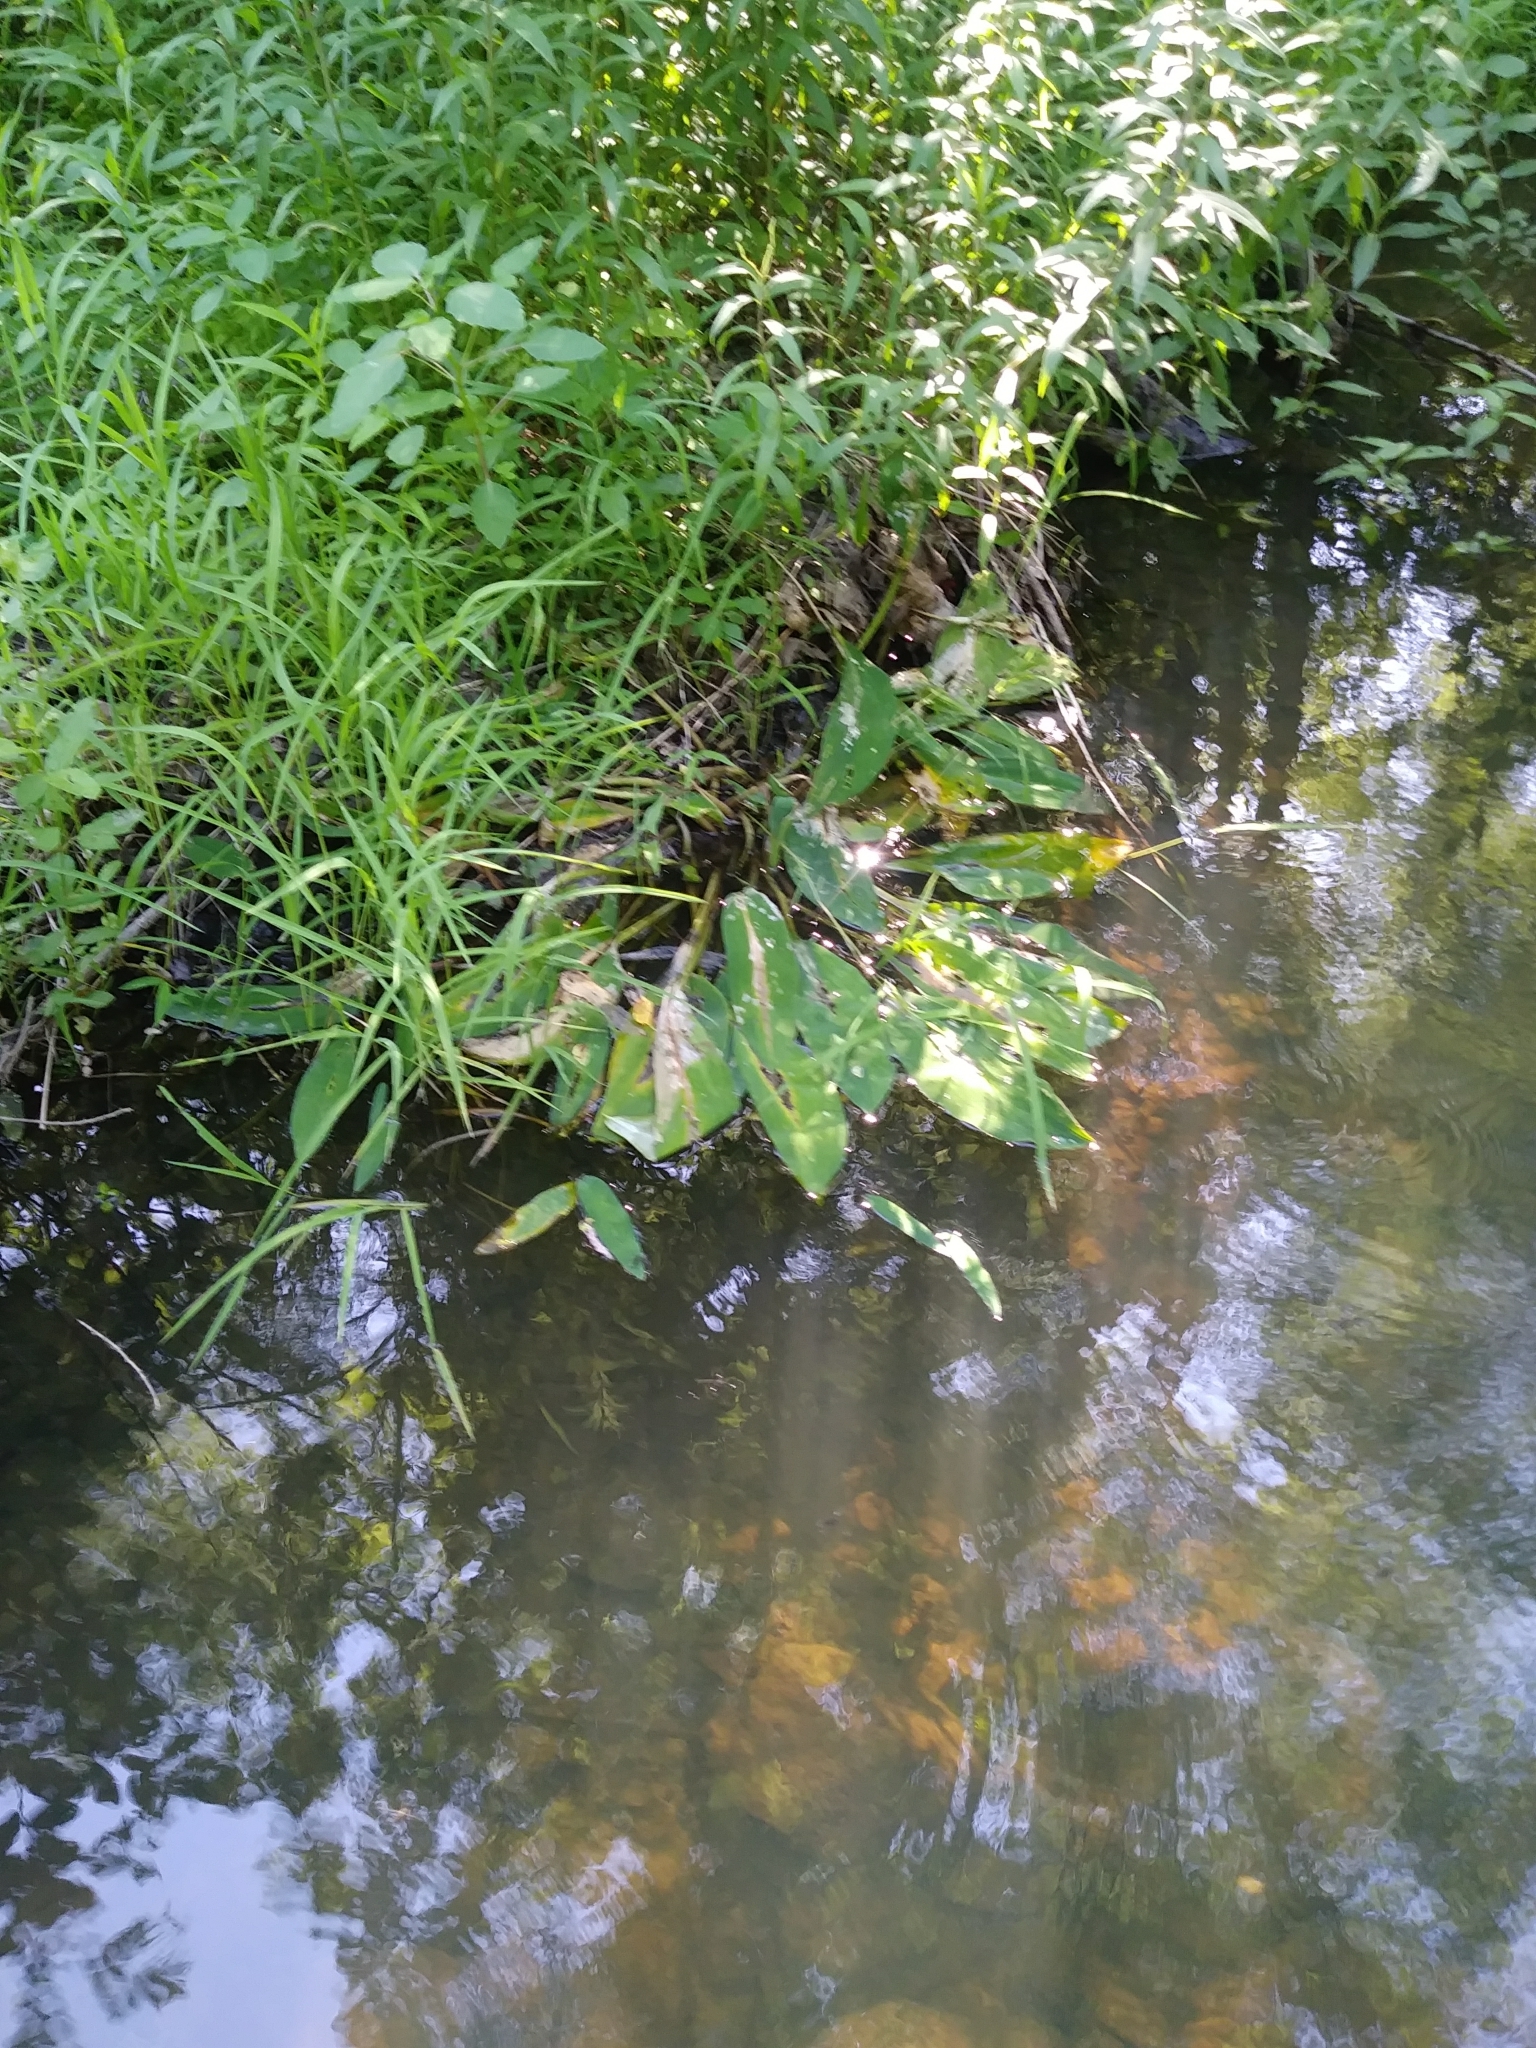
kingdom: Plantae
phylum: Tracheophyta
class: Liliopsida
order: Alismatales
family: Araceae
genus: Orontium
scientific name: Orontium aquaticum
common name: Golden-club
